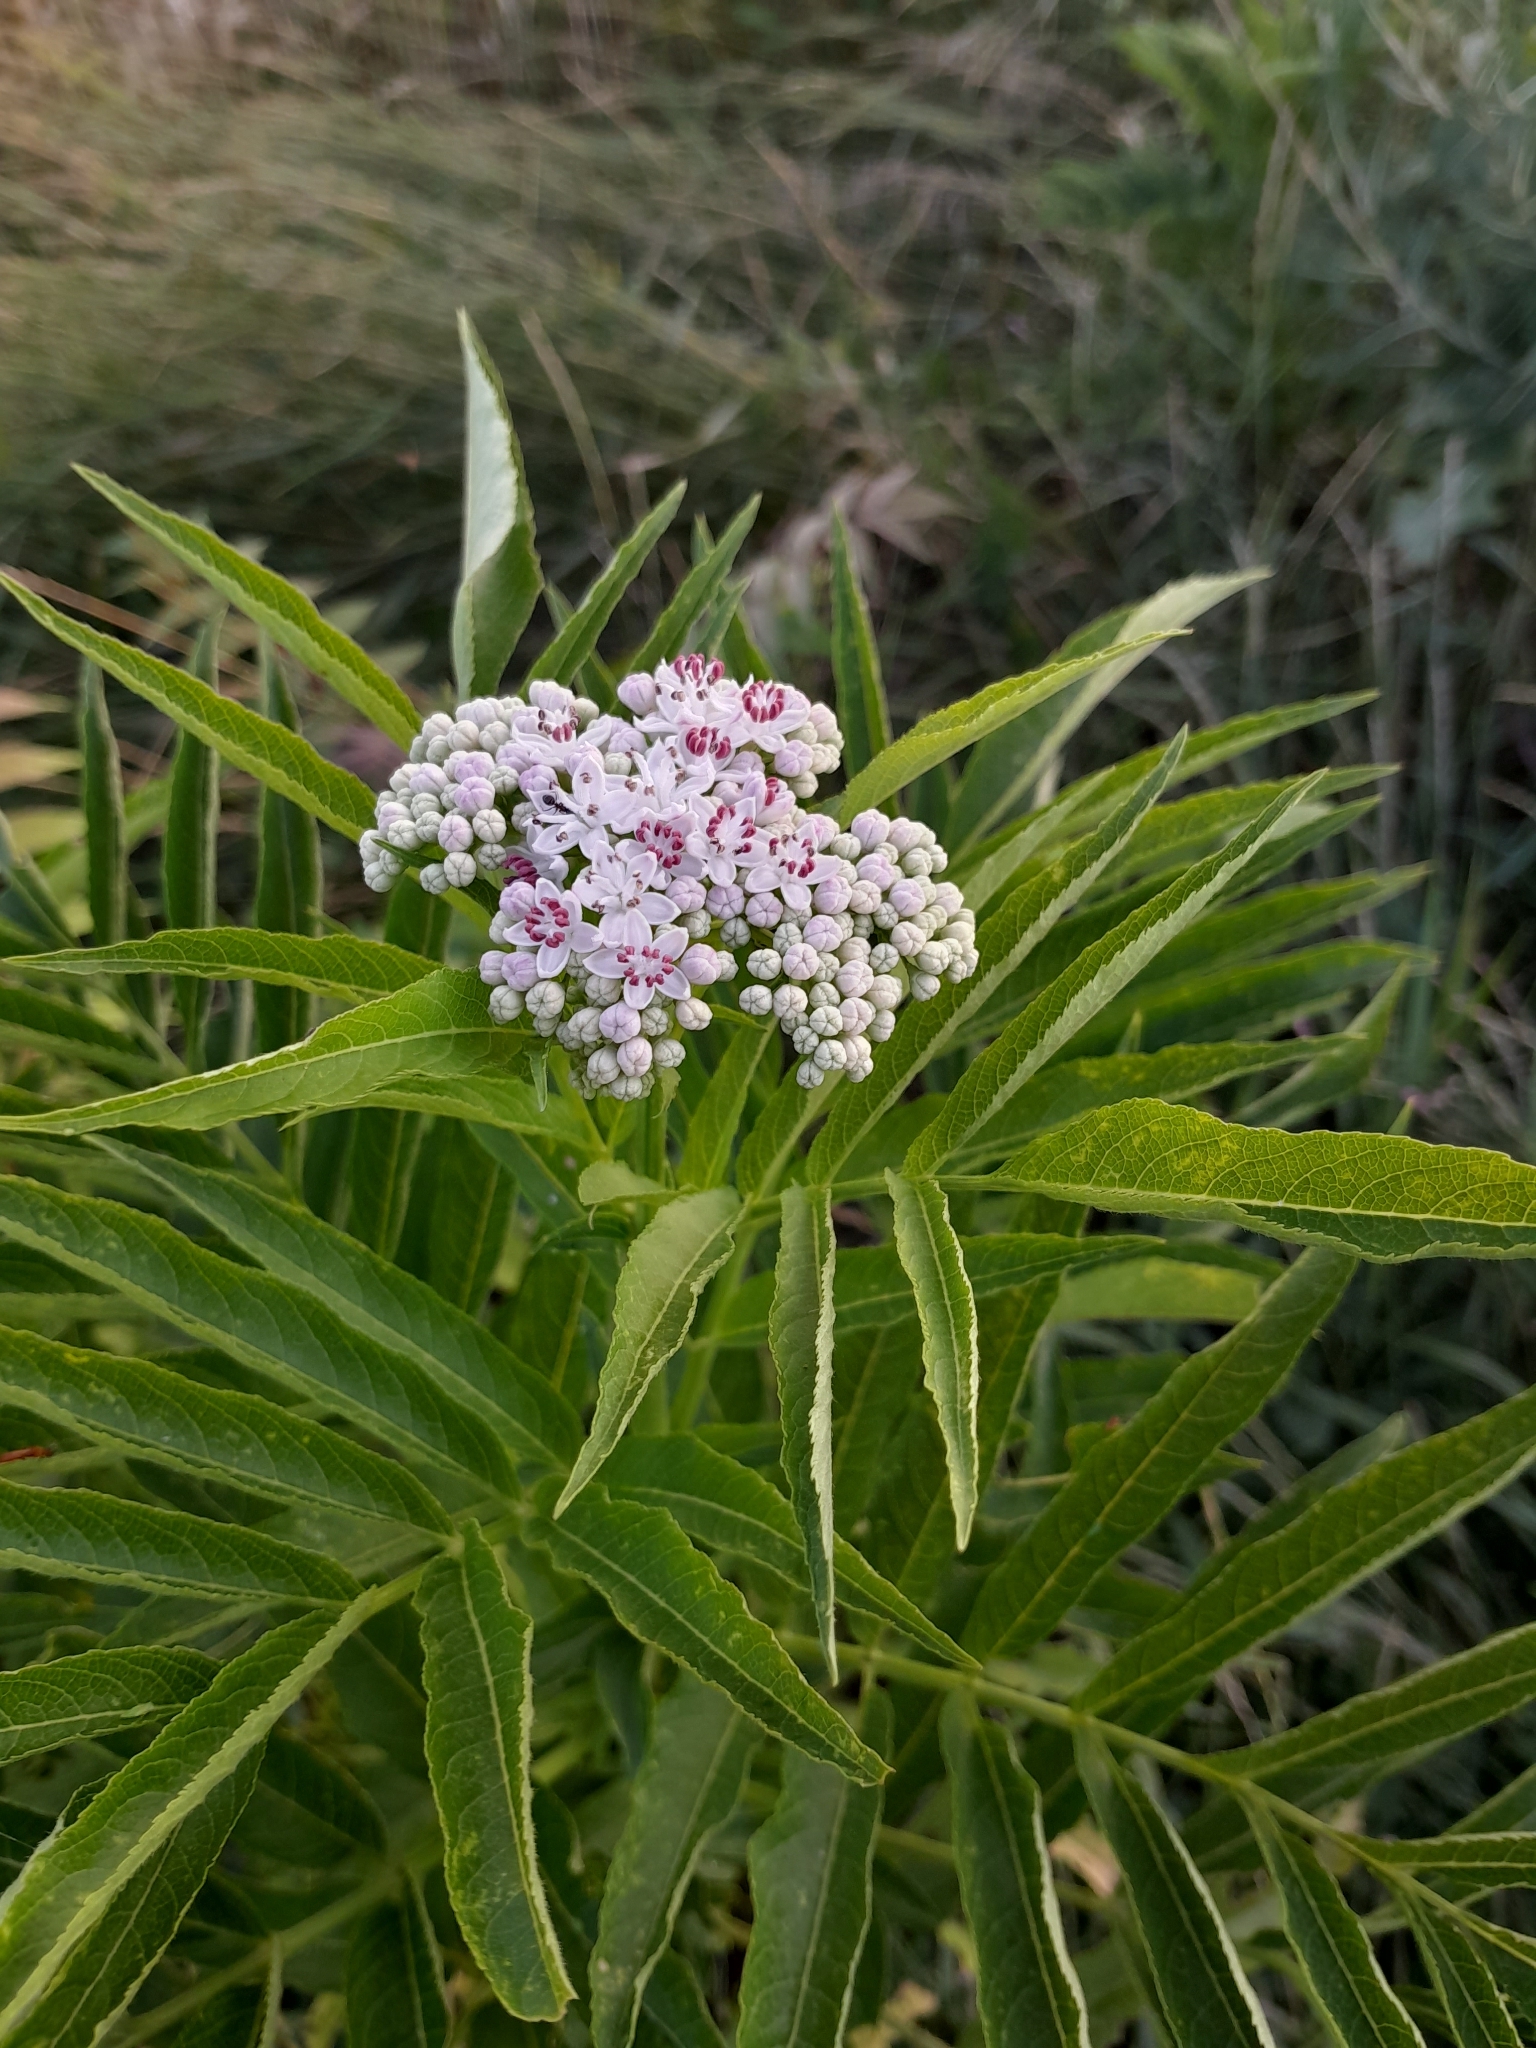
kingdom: Plantae
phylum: Tracheophyta
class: Magnoliopsida
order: Dipsacales
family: Viburnaceae
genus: Sambucus
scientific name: Sambucus ebulus
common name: Dwarf elder
